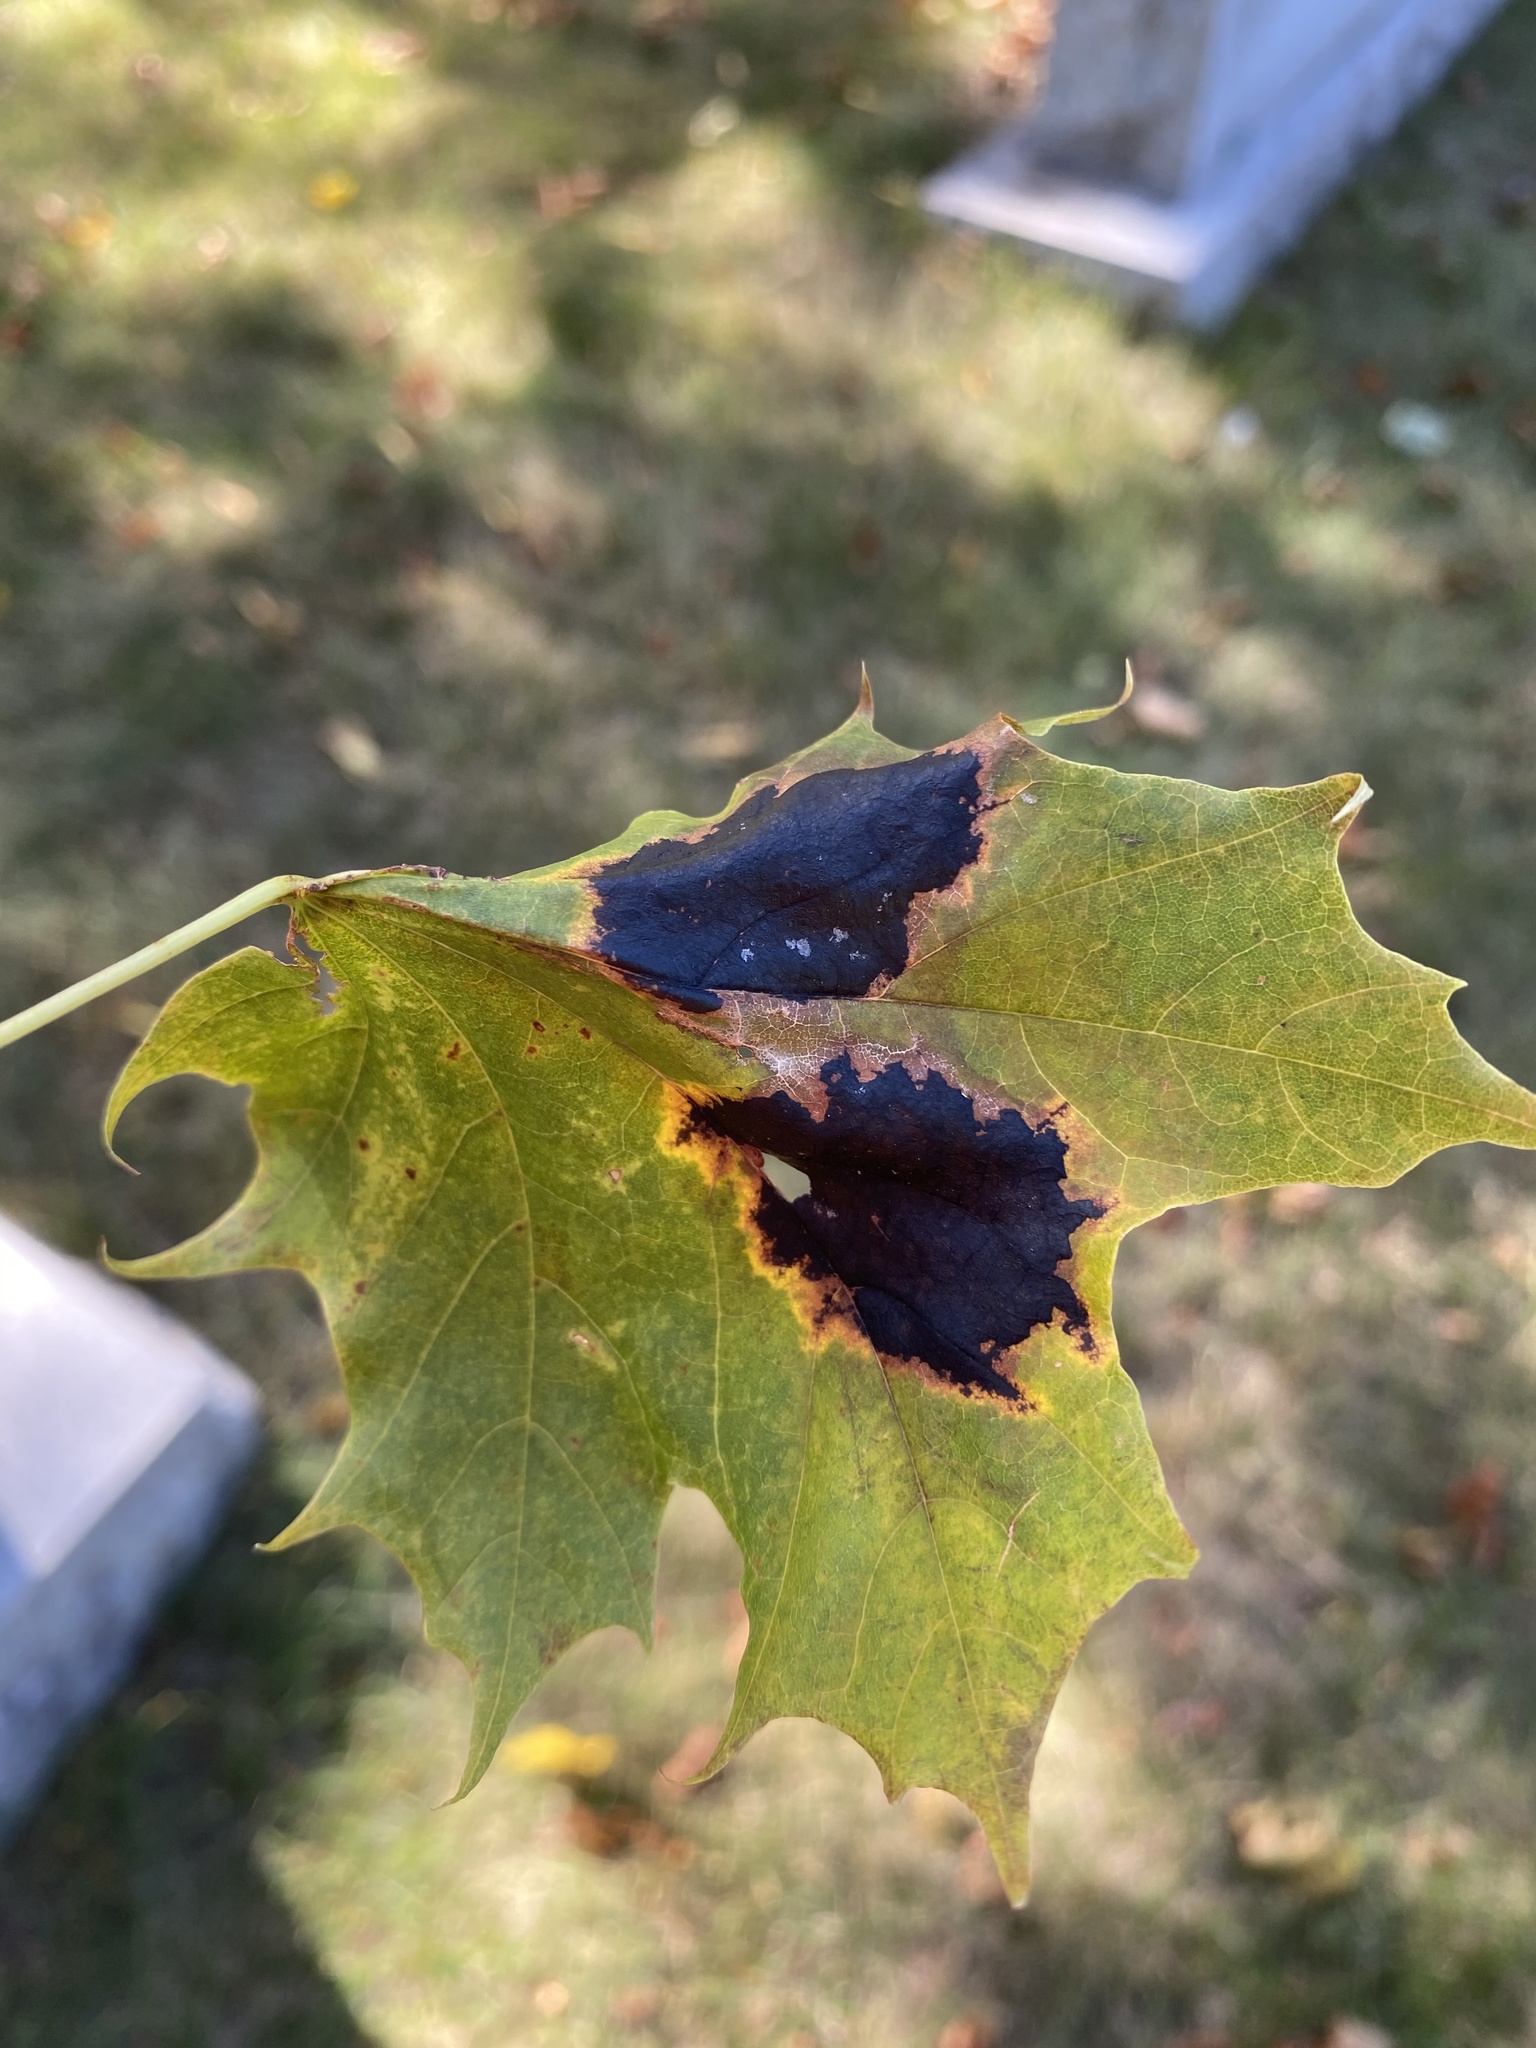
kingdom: Fungi
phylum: Ascomycota
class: Leotiomycetes
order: Rhytismatales
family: Rhytismataceae
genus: Rhytisma
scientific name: Rhytisma acerinum
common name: European tar spot
